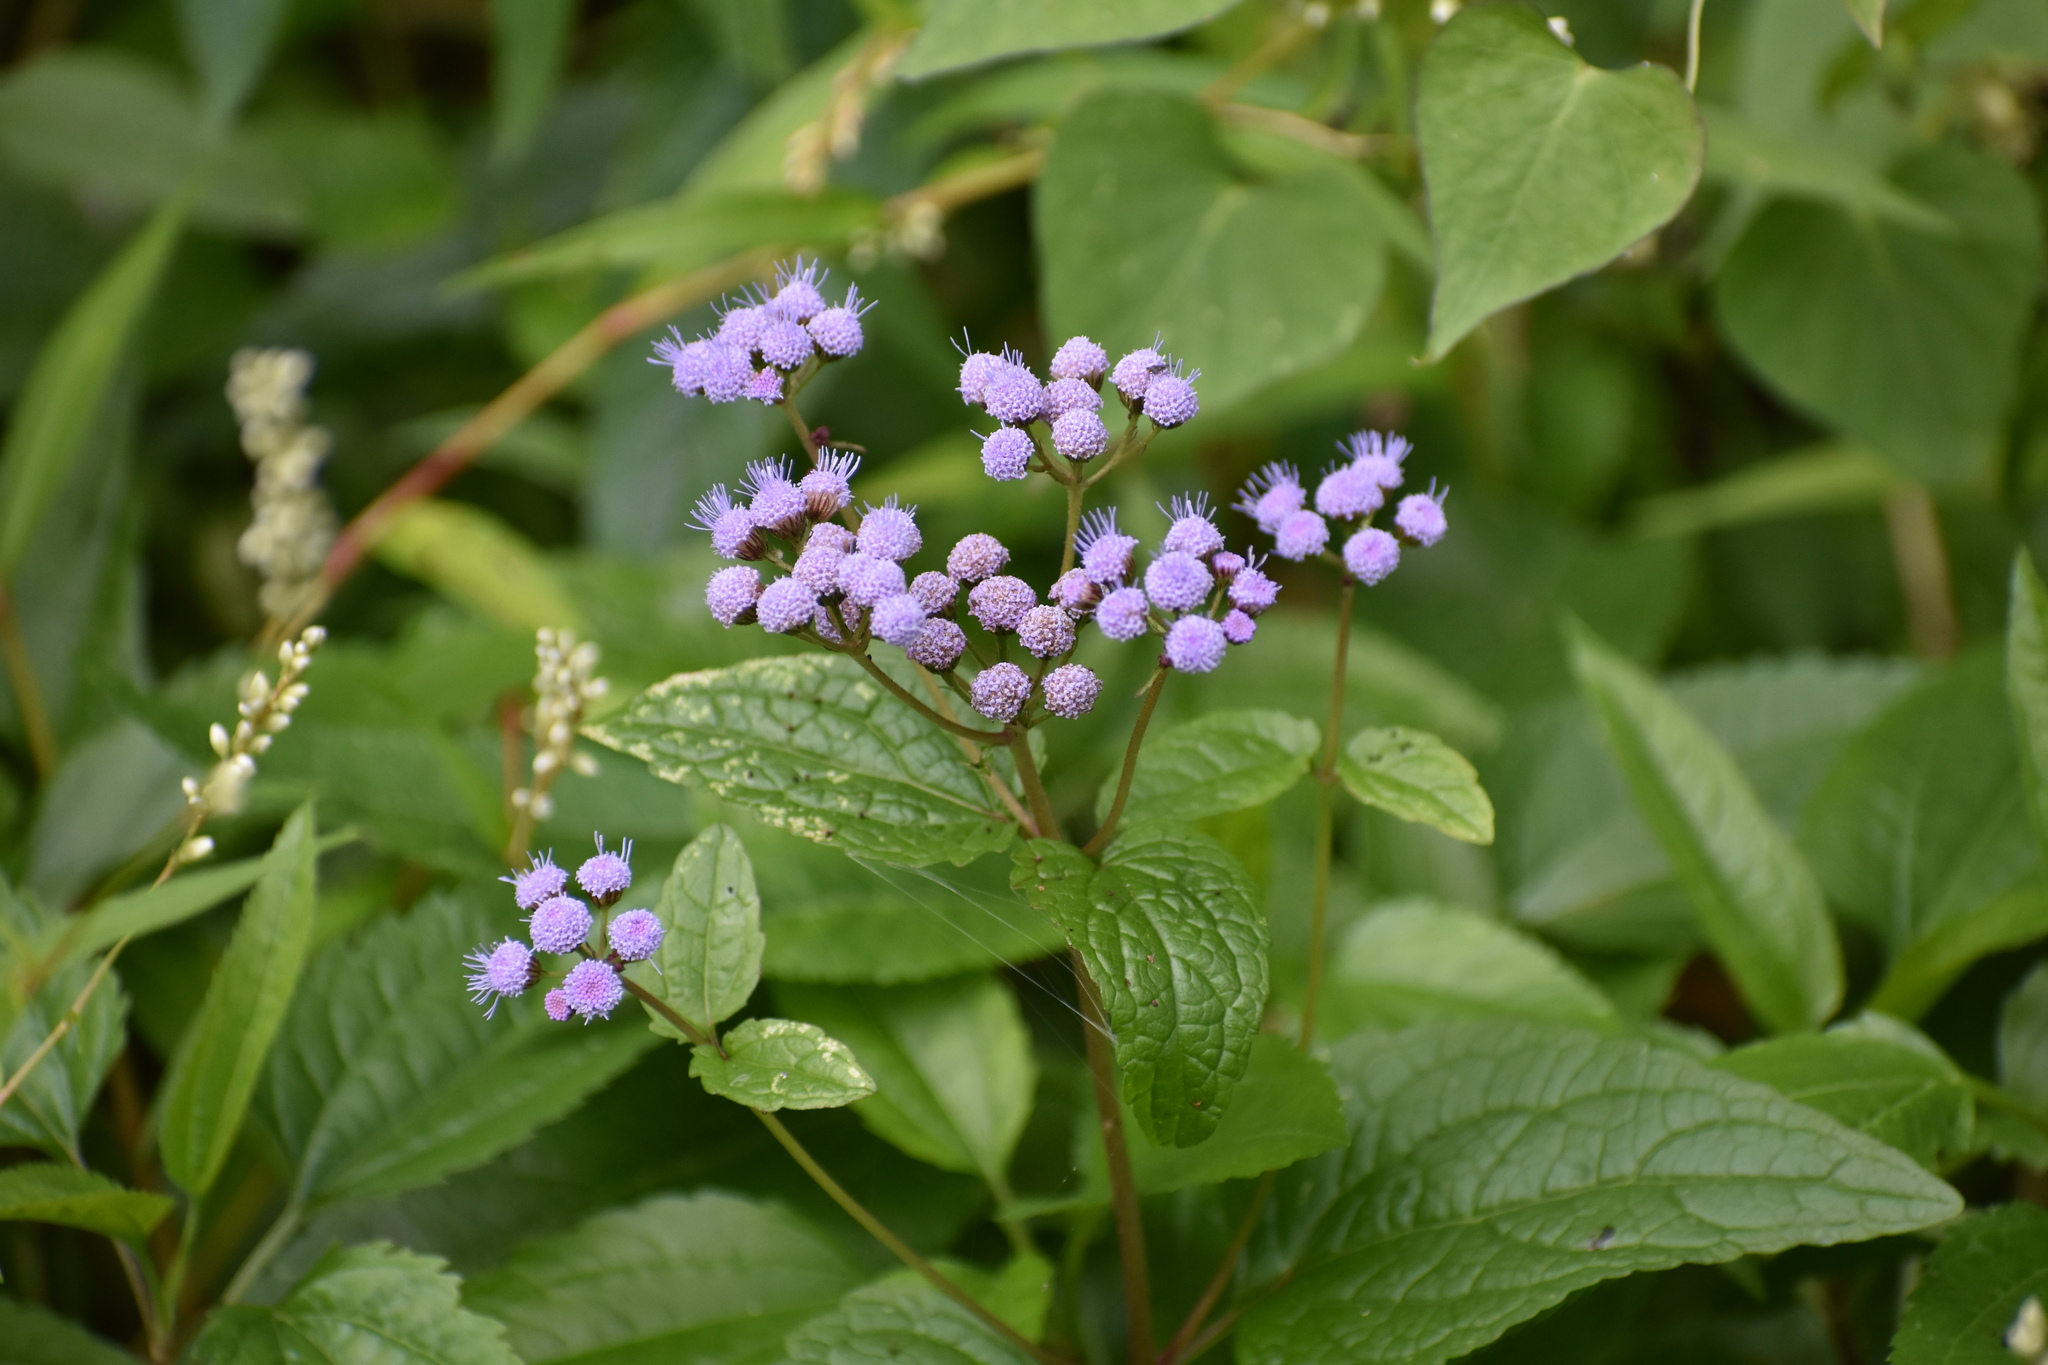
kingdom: Plantae
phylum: Tracheophyta
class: Magnoliopsida
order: Asterales
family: Asteraceae
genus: Conoclinium
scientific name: Conoclinium coelestinum
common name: Blue mistflower
